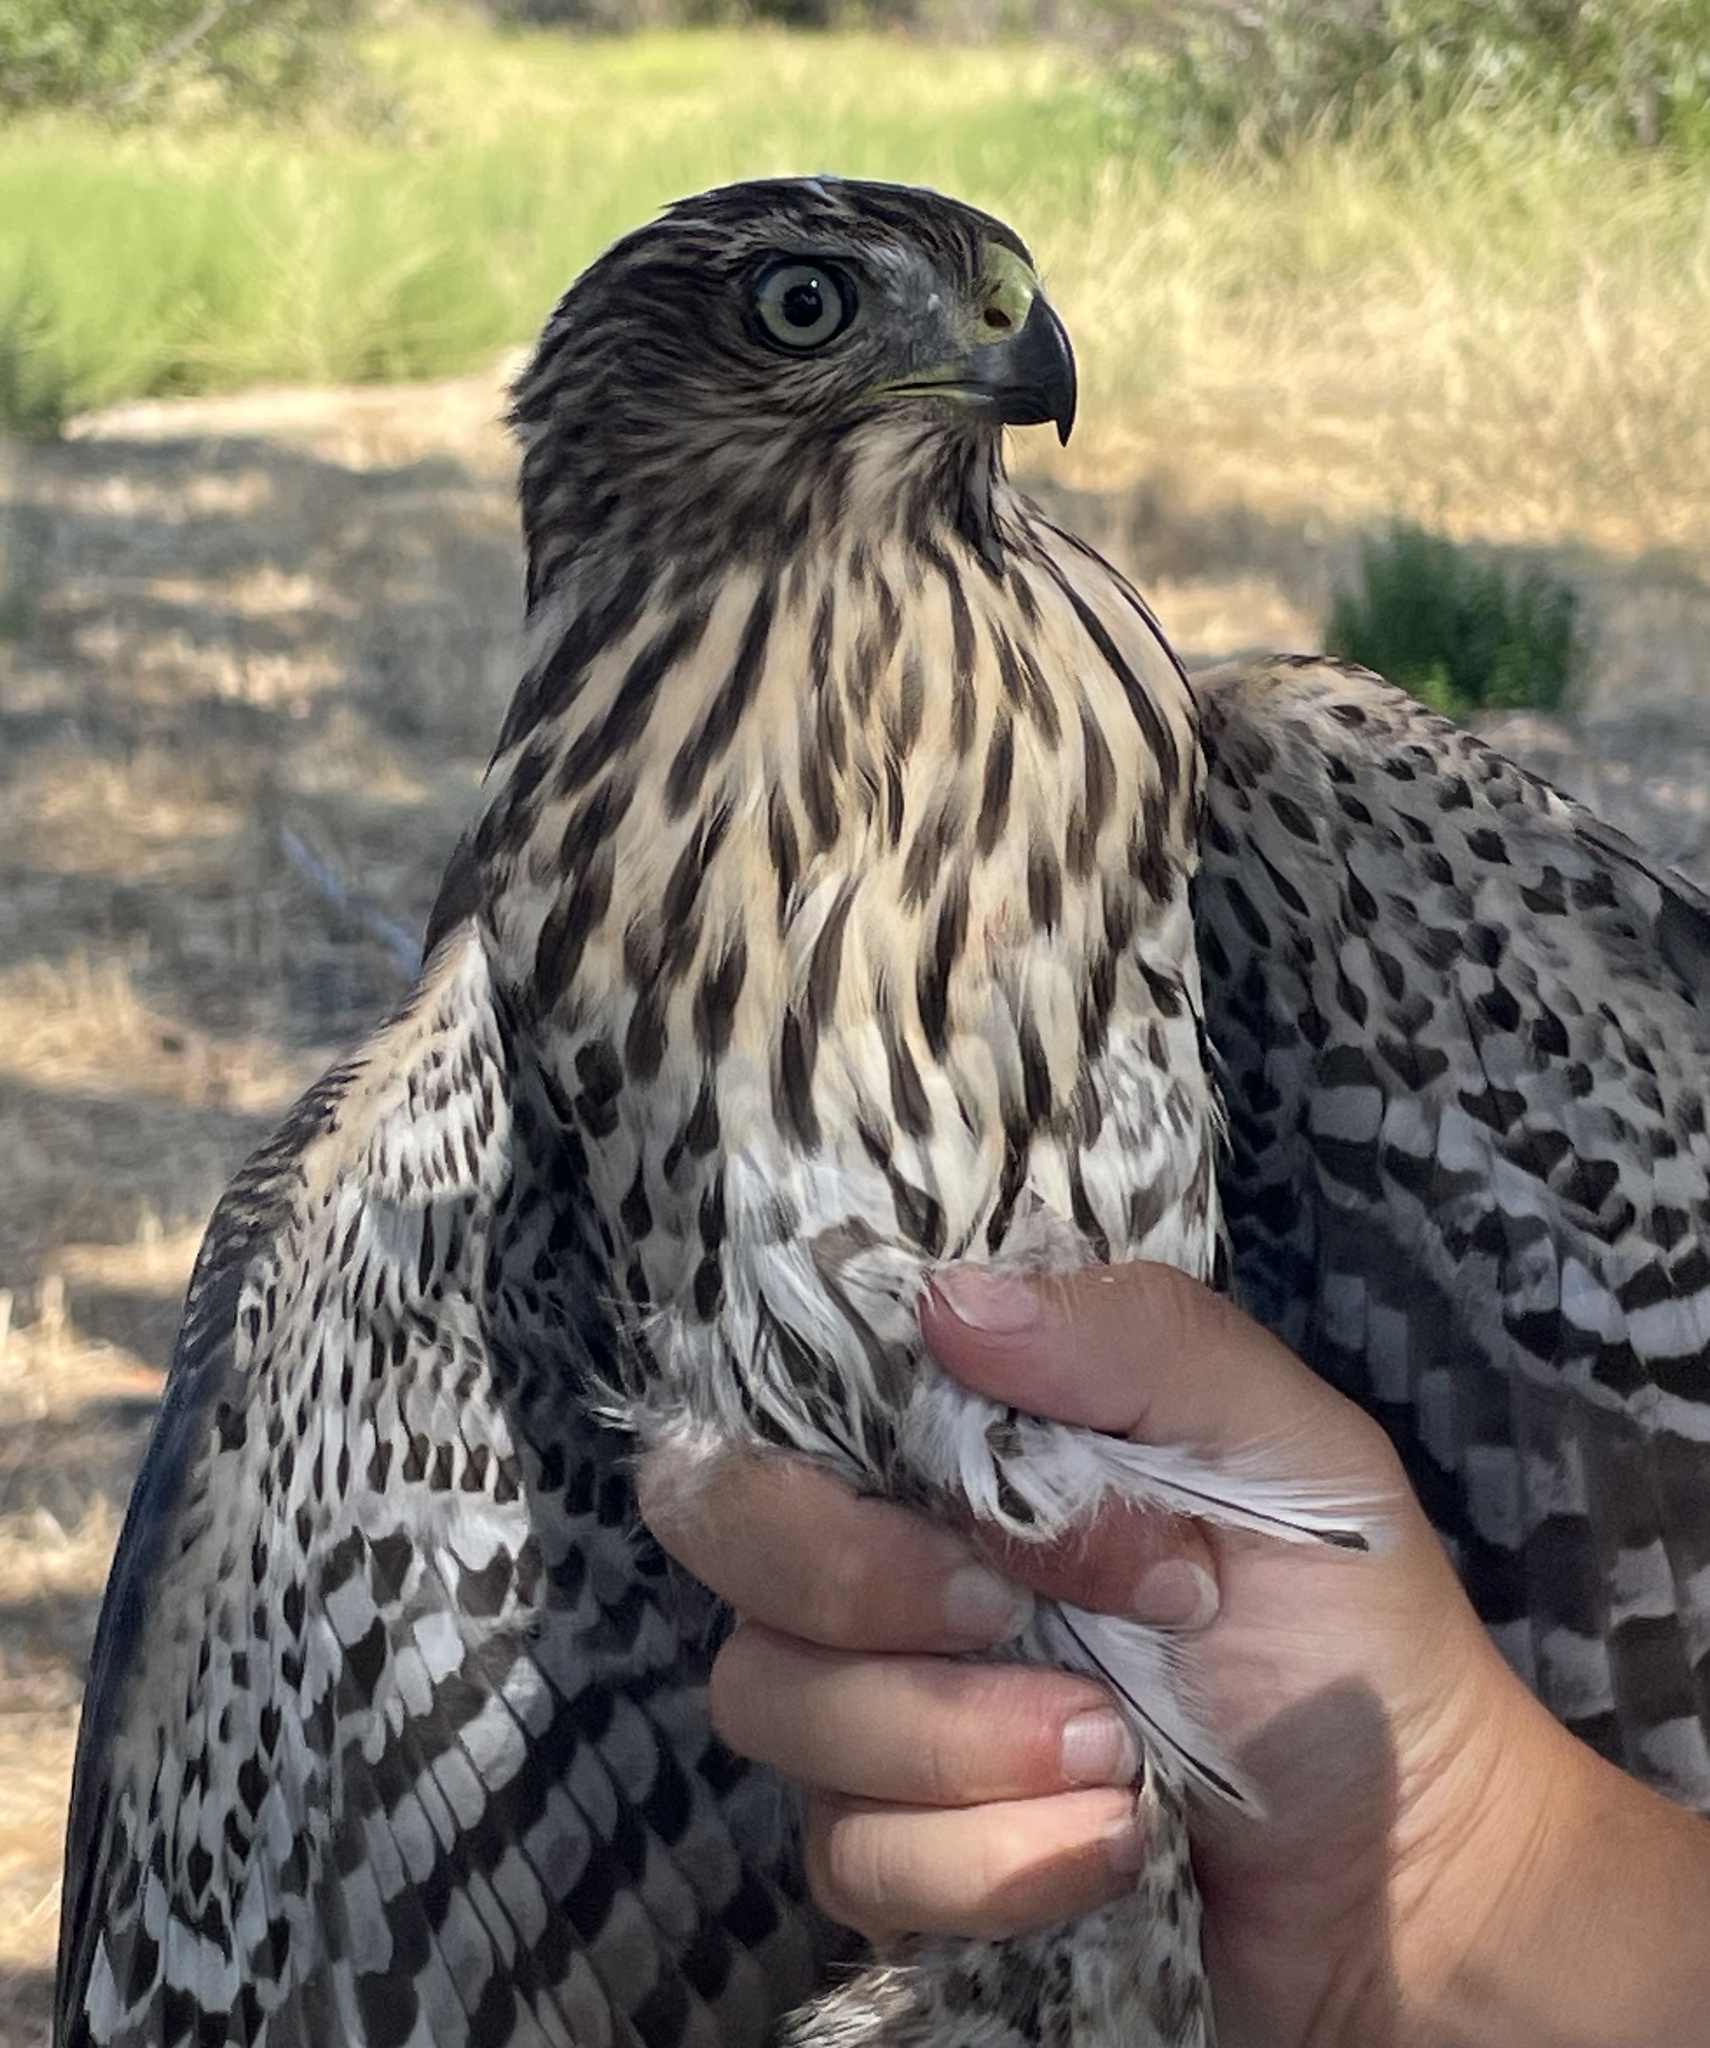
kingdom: Animalia
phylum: Chordata
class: Aves
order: Accipitriformes
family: Accipitridae
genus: Accipiter
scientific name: Accipiter cooperii
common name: Cooper's hawk
